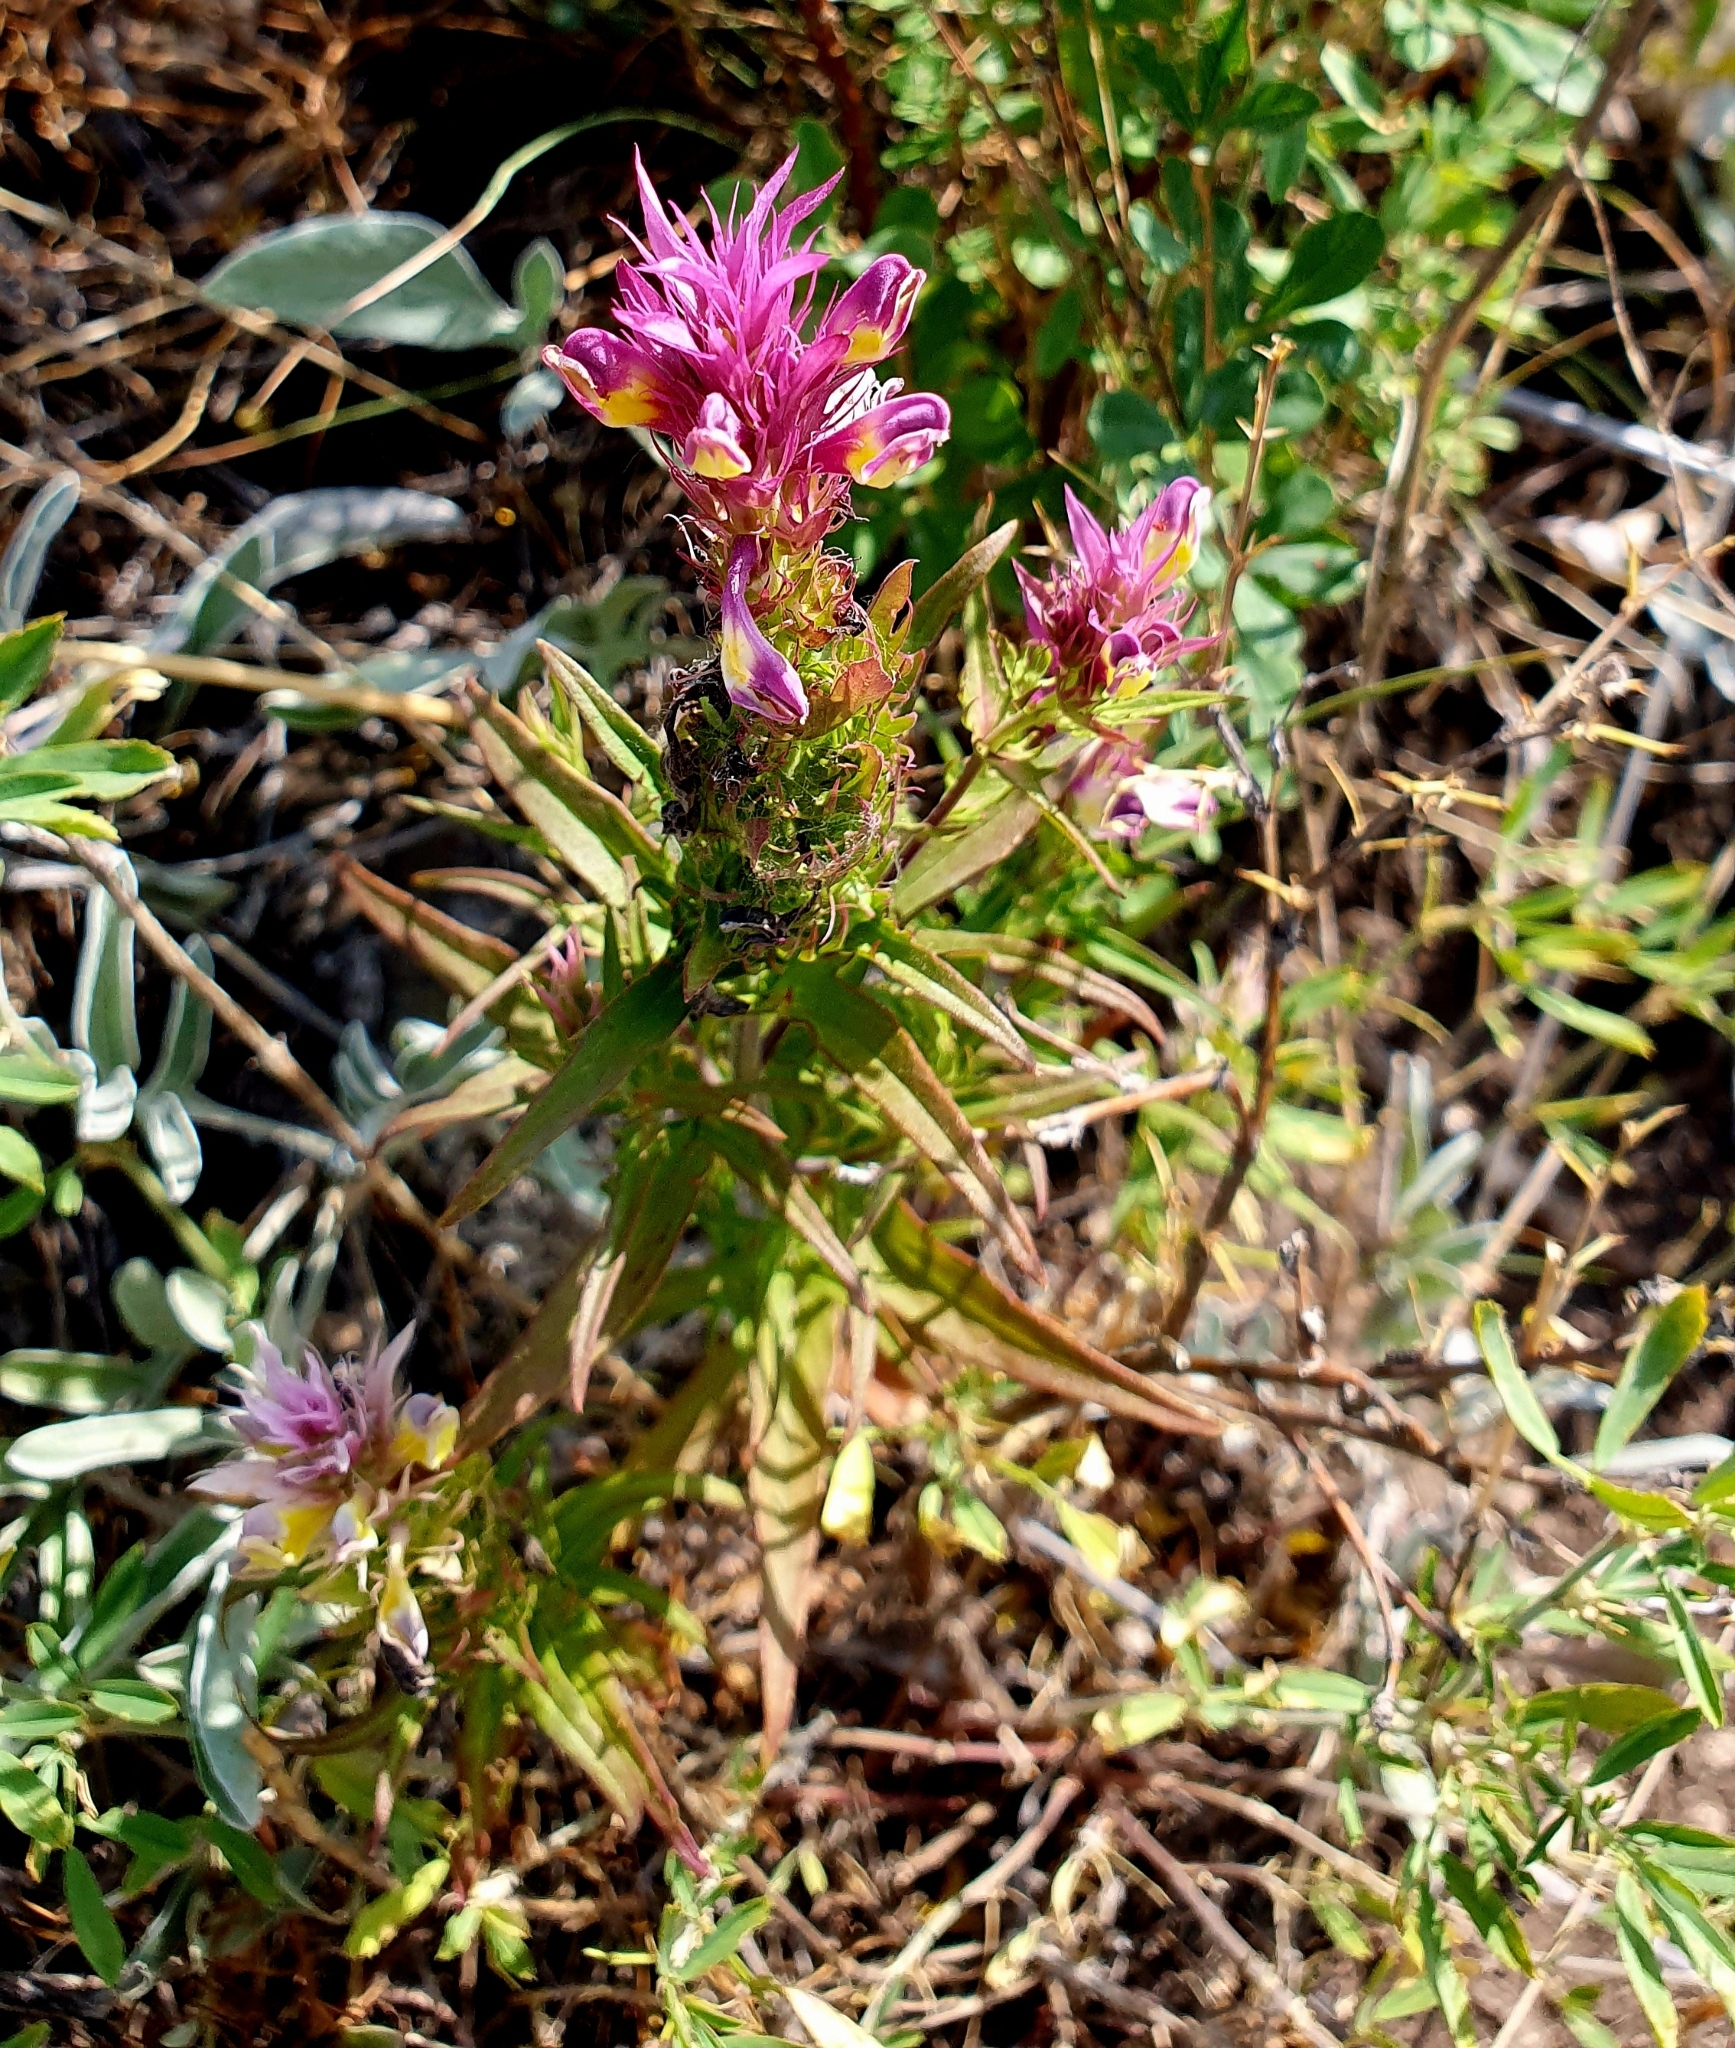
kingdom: Plantae
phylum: Tracheophyta
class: Magnoliopsida
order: Lamiales
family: Orobanchaceae
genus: Melampyrum
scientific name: Melampyrum arvense
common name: Field cow-wheat
